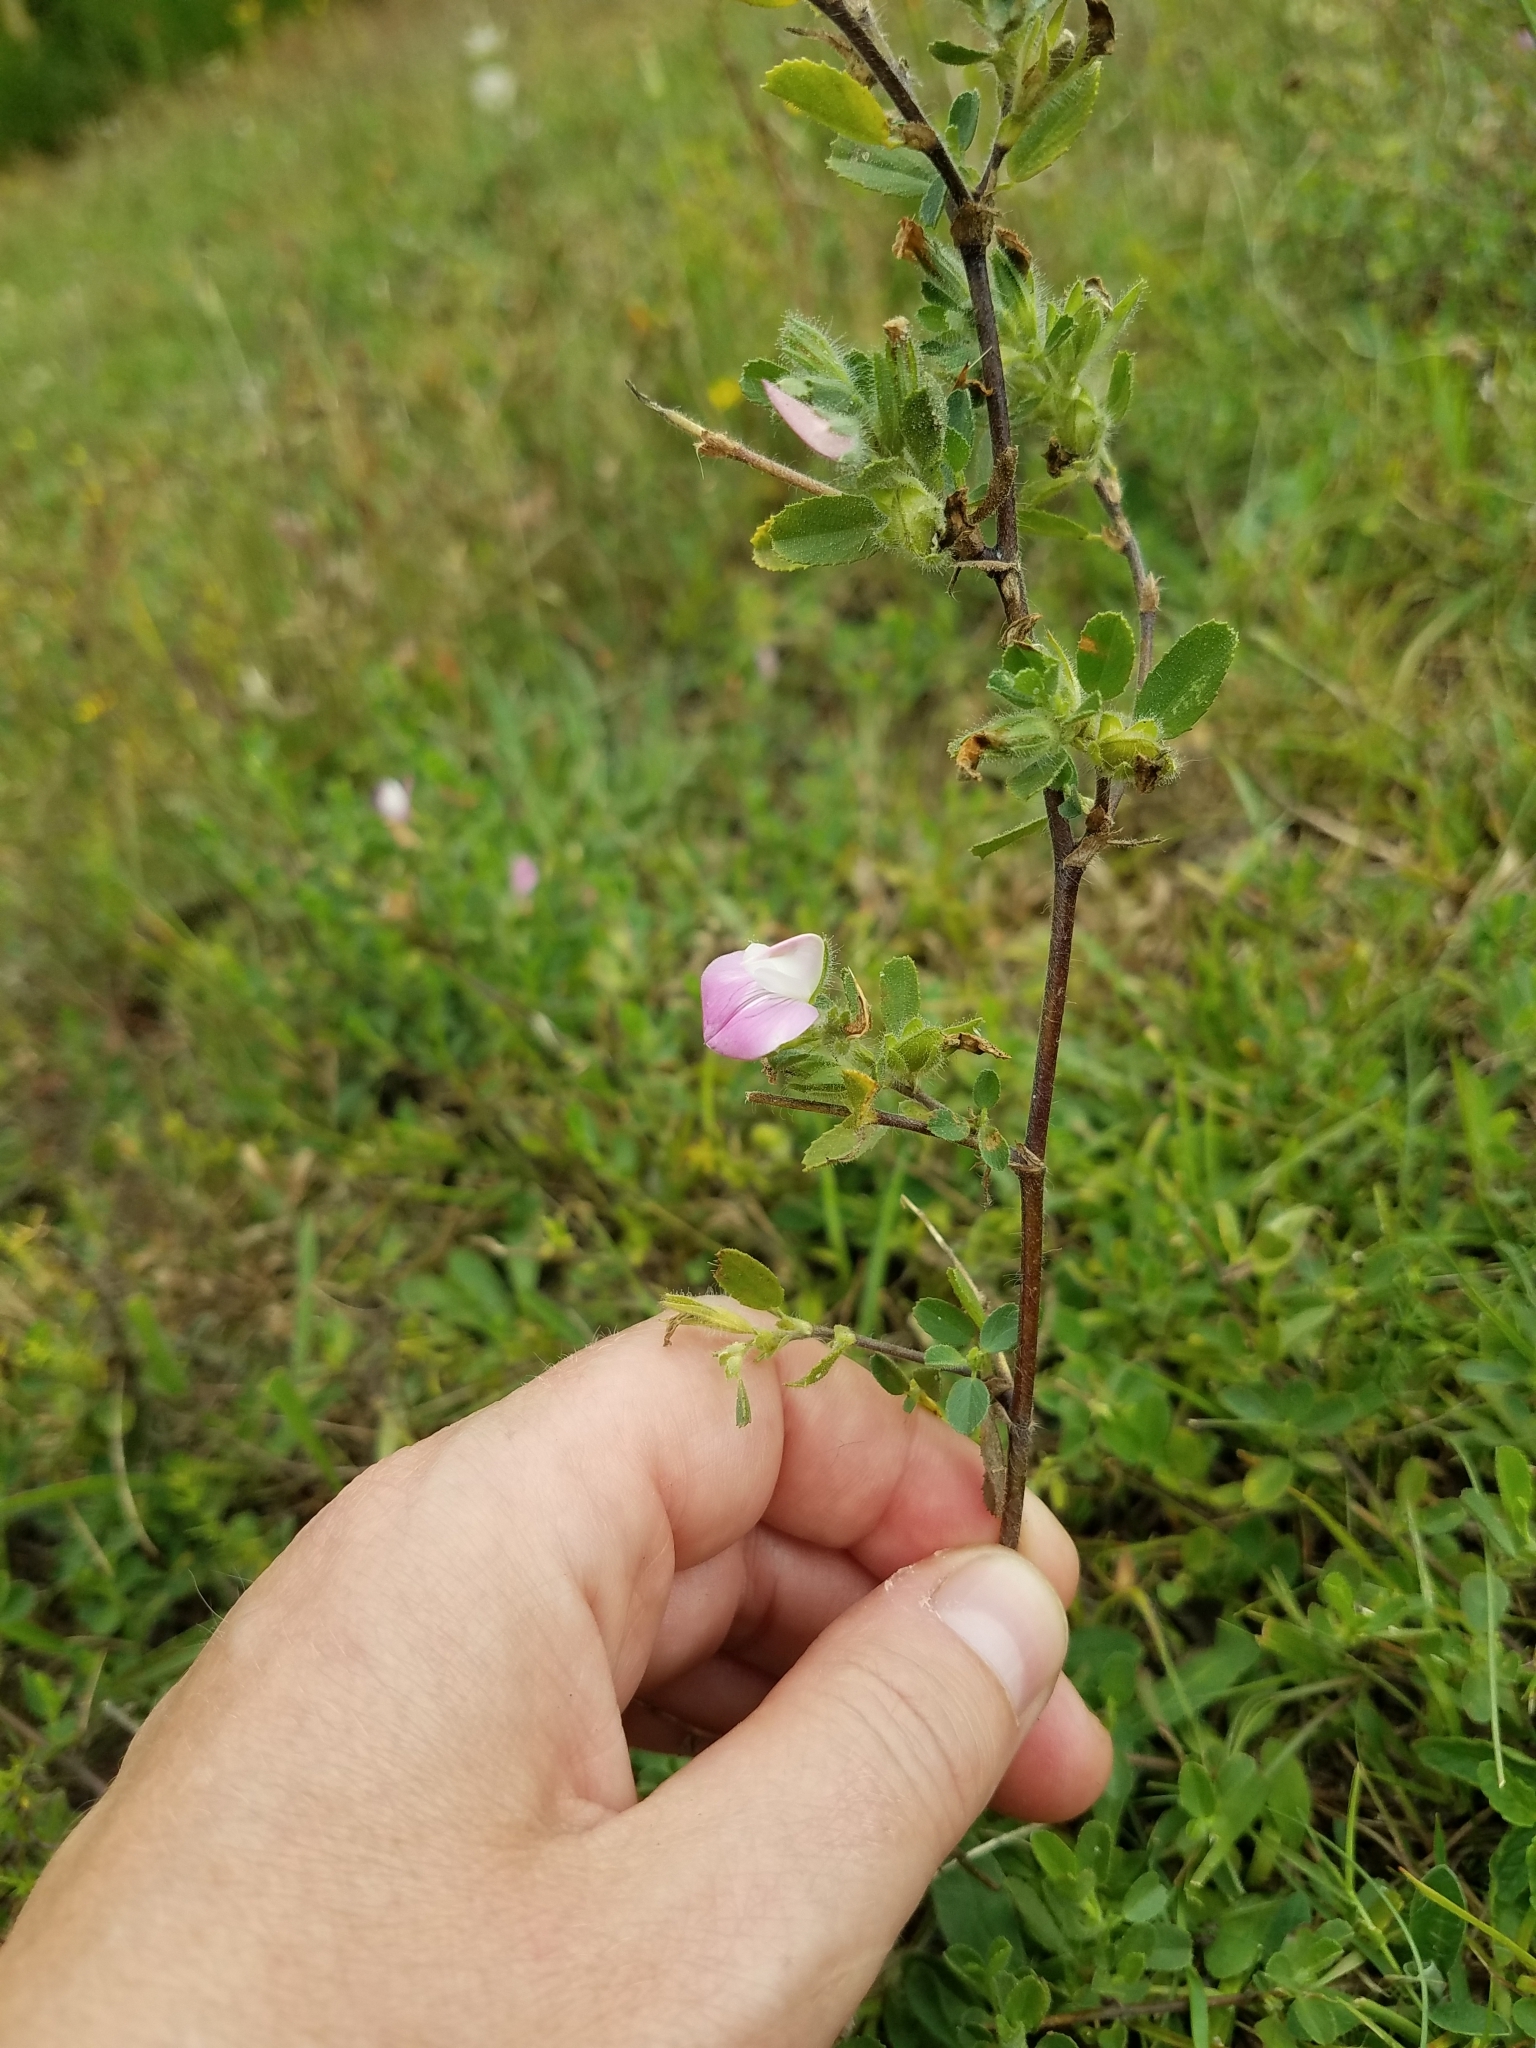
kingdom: Plantae
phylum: Tracheophyta
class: Magnoliopsida
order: Fabales
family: Fabaceae
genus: Ononis
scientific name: Ononis spinosa
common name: Spiny restharrow
